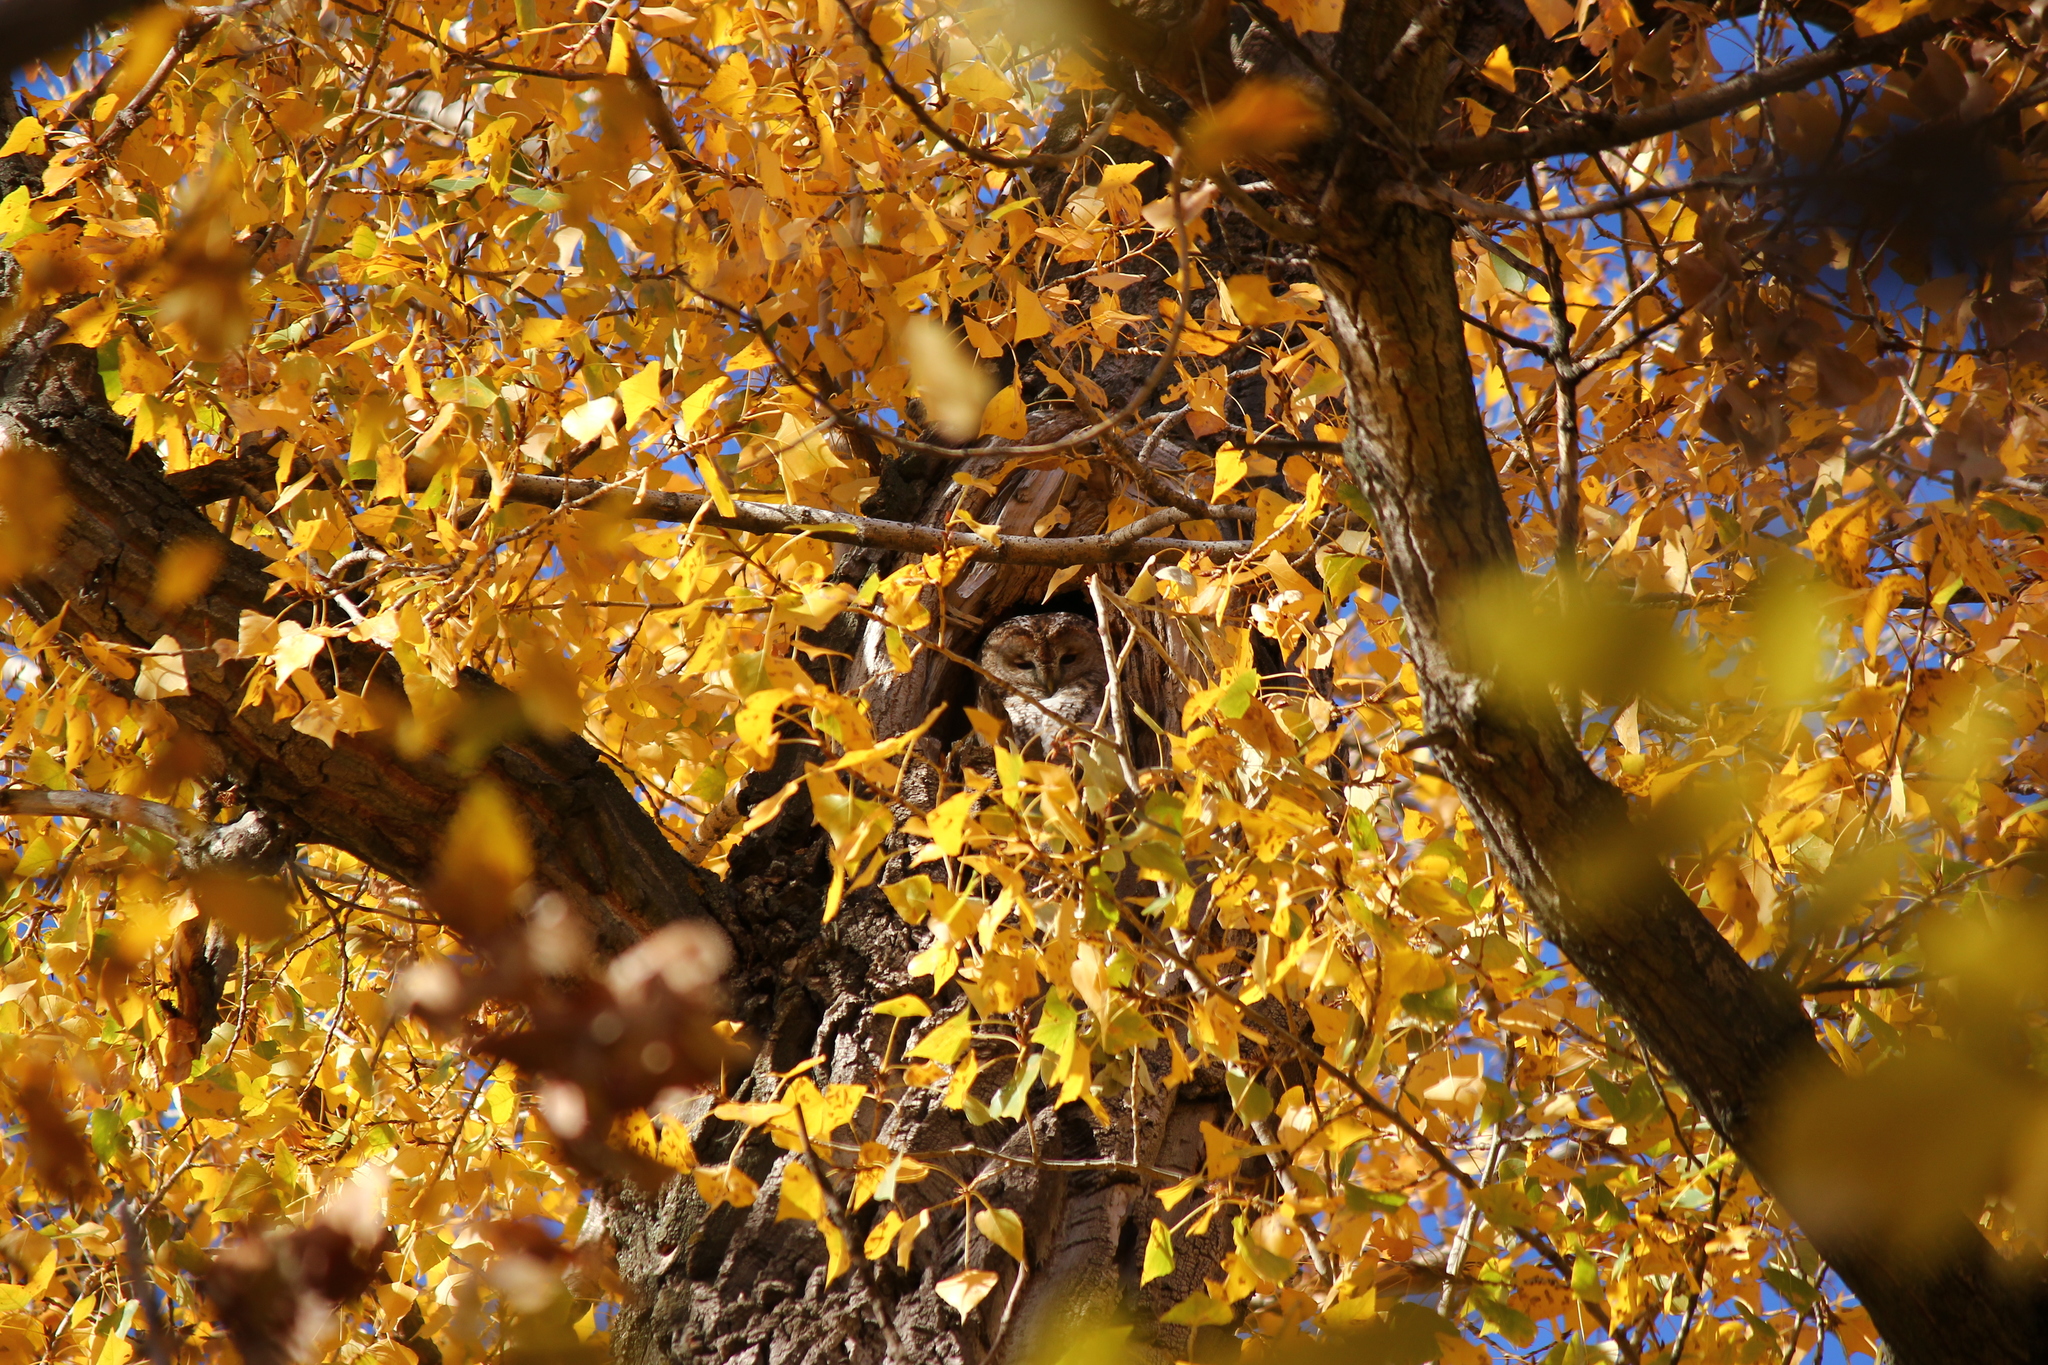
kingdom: Animalia
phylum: Chordata
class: Aves
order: Strigiformes
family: Strigidae
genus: Strix
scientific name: Strix aluco
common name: Tawny owl
